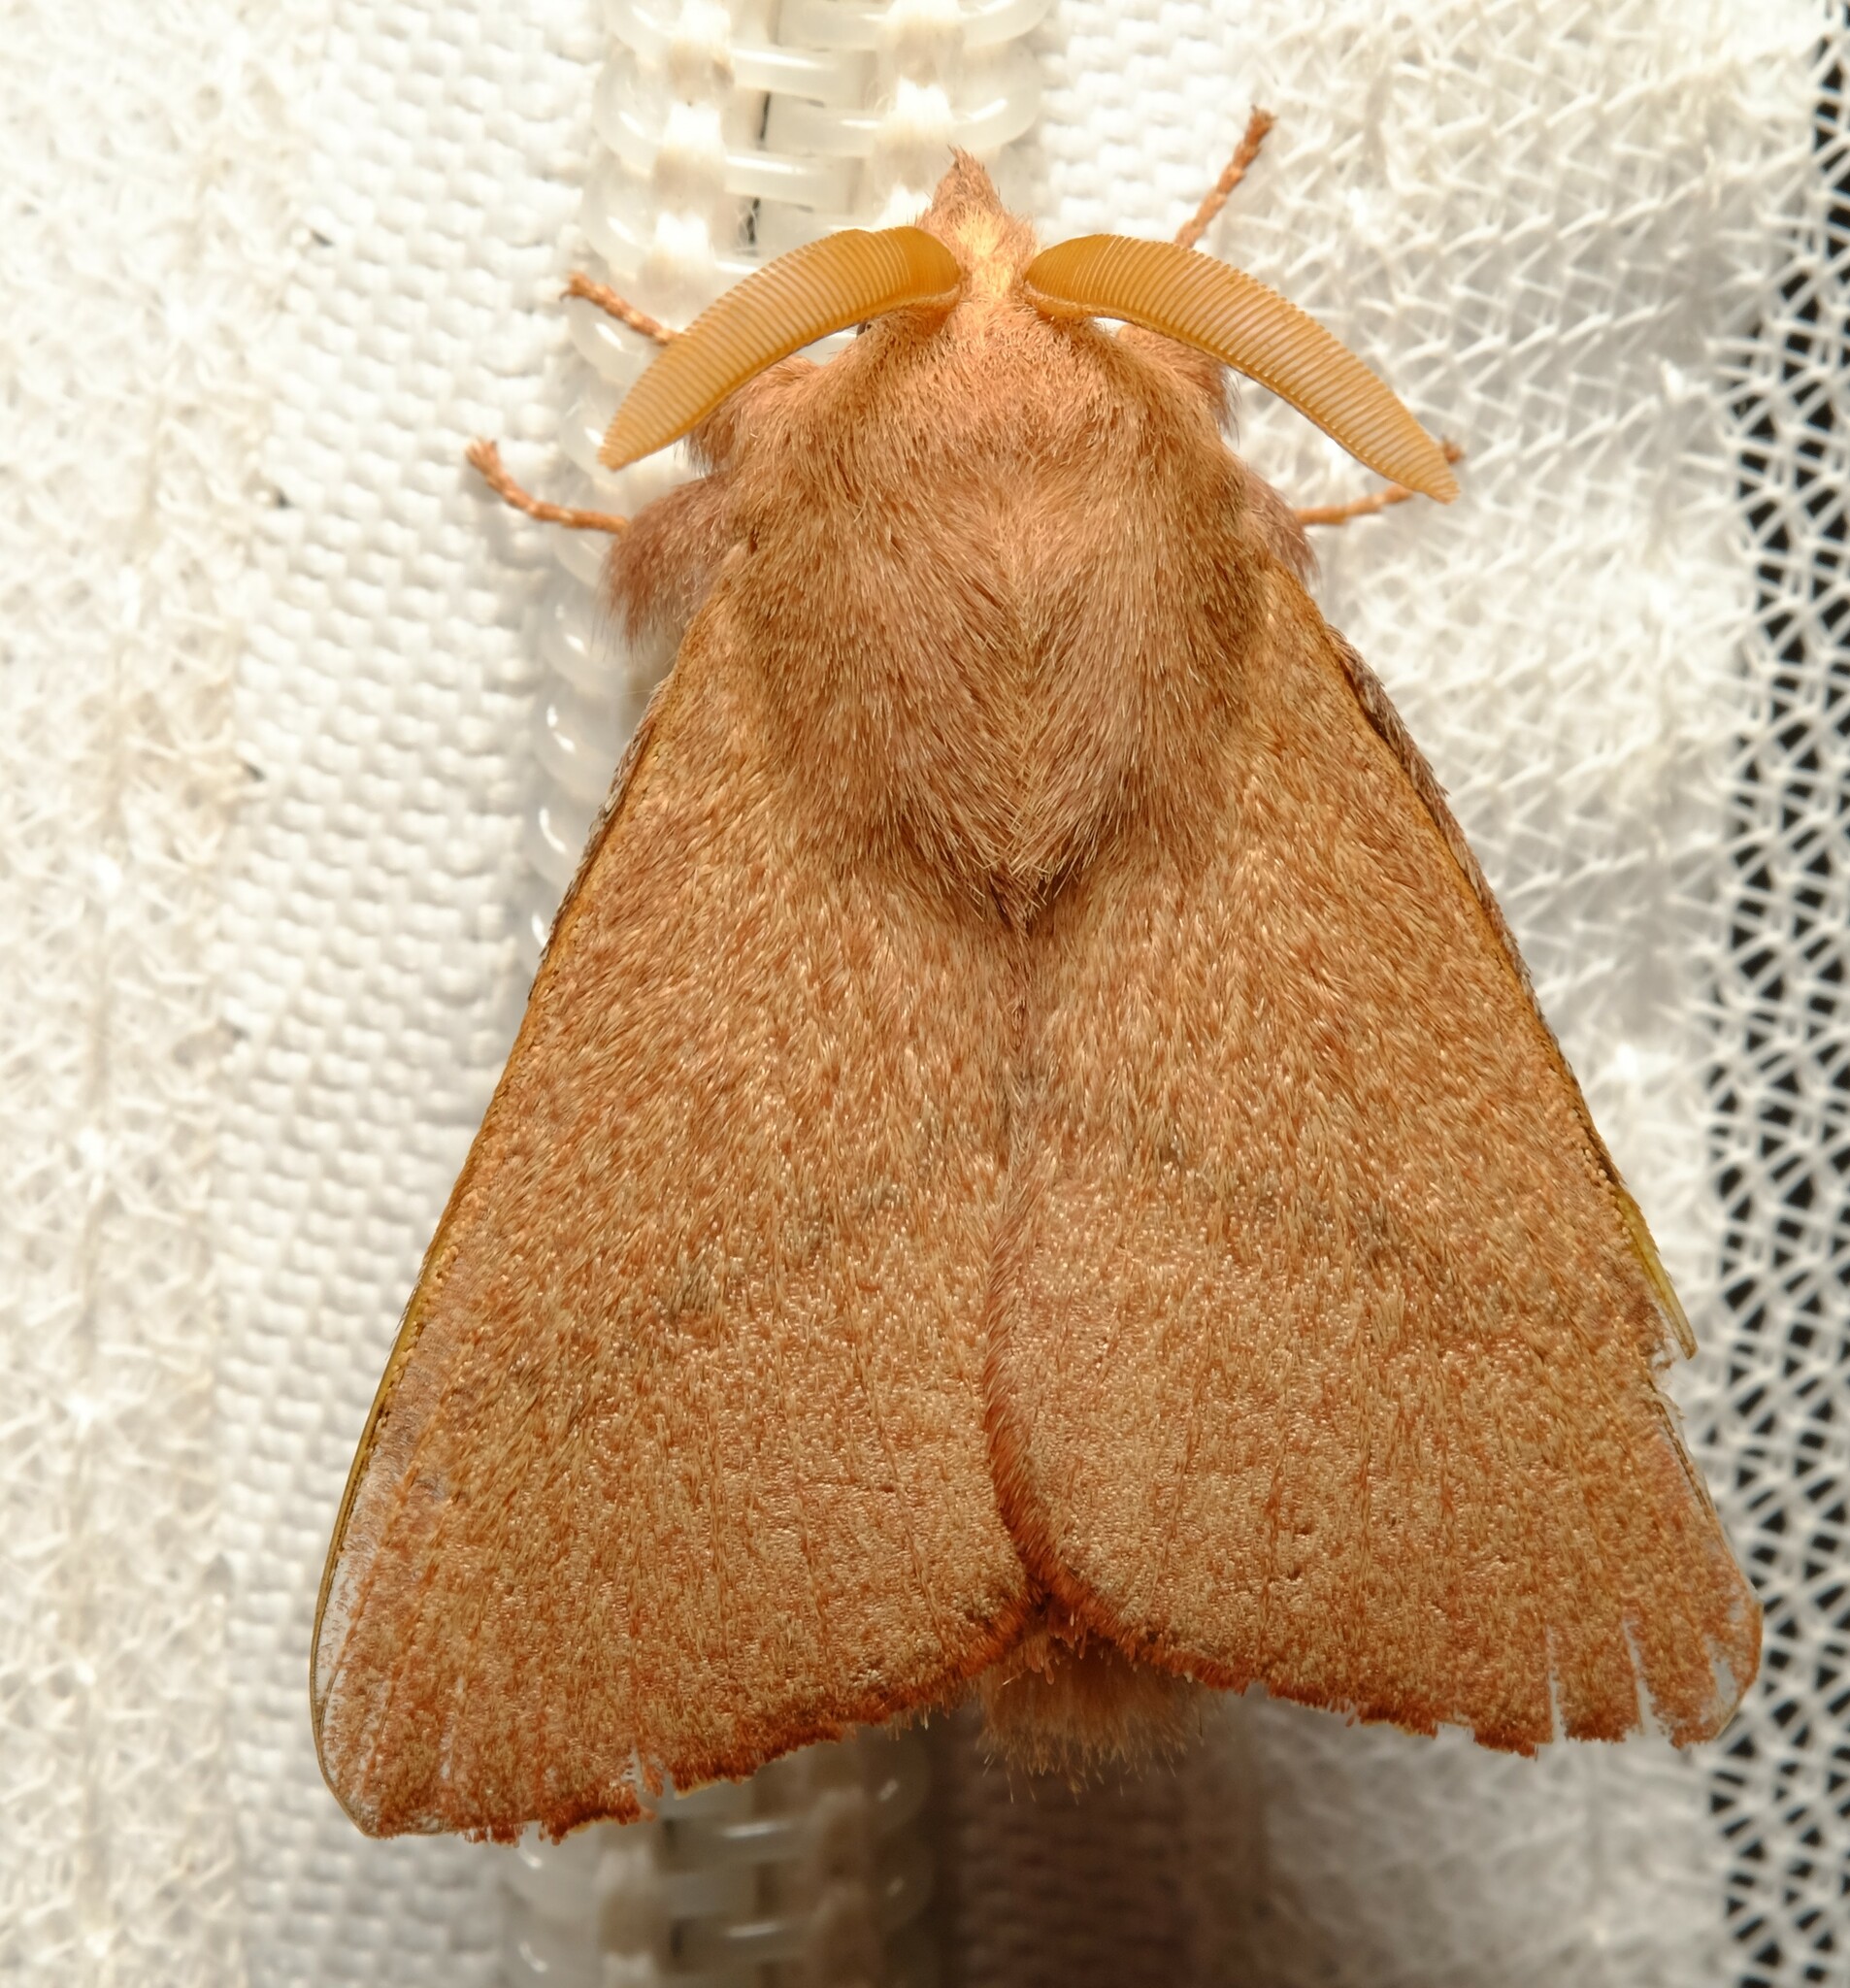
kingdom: Animalia
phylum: Arthropoda
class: Insecta
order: Lepidoptera
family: Lasiocampidae
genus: Pararguda
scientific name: Pararguda
